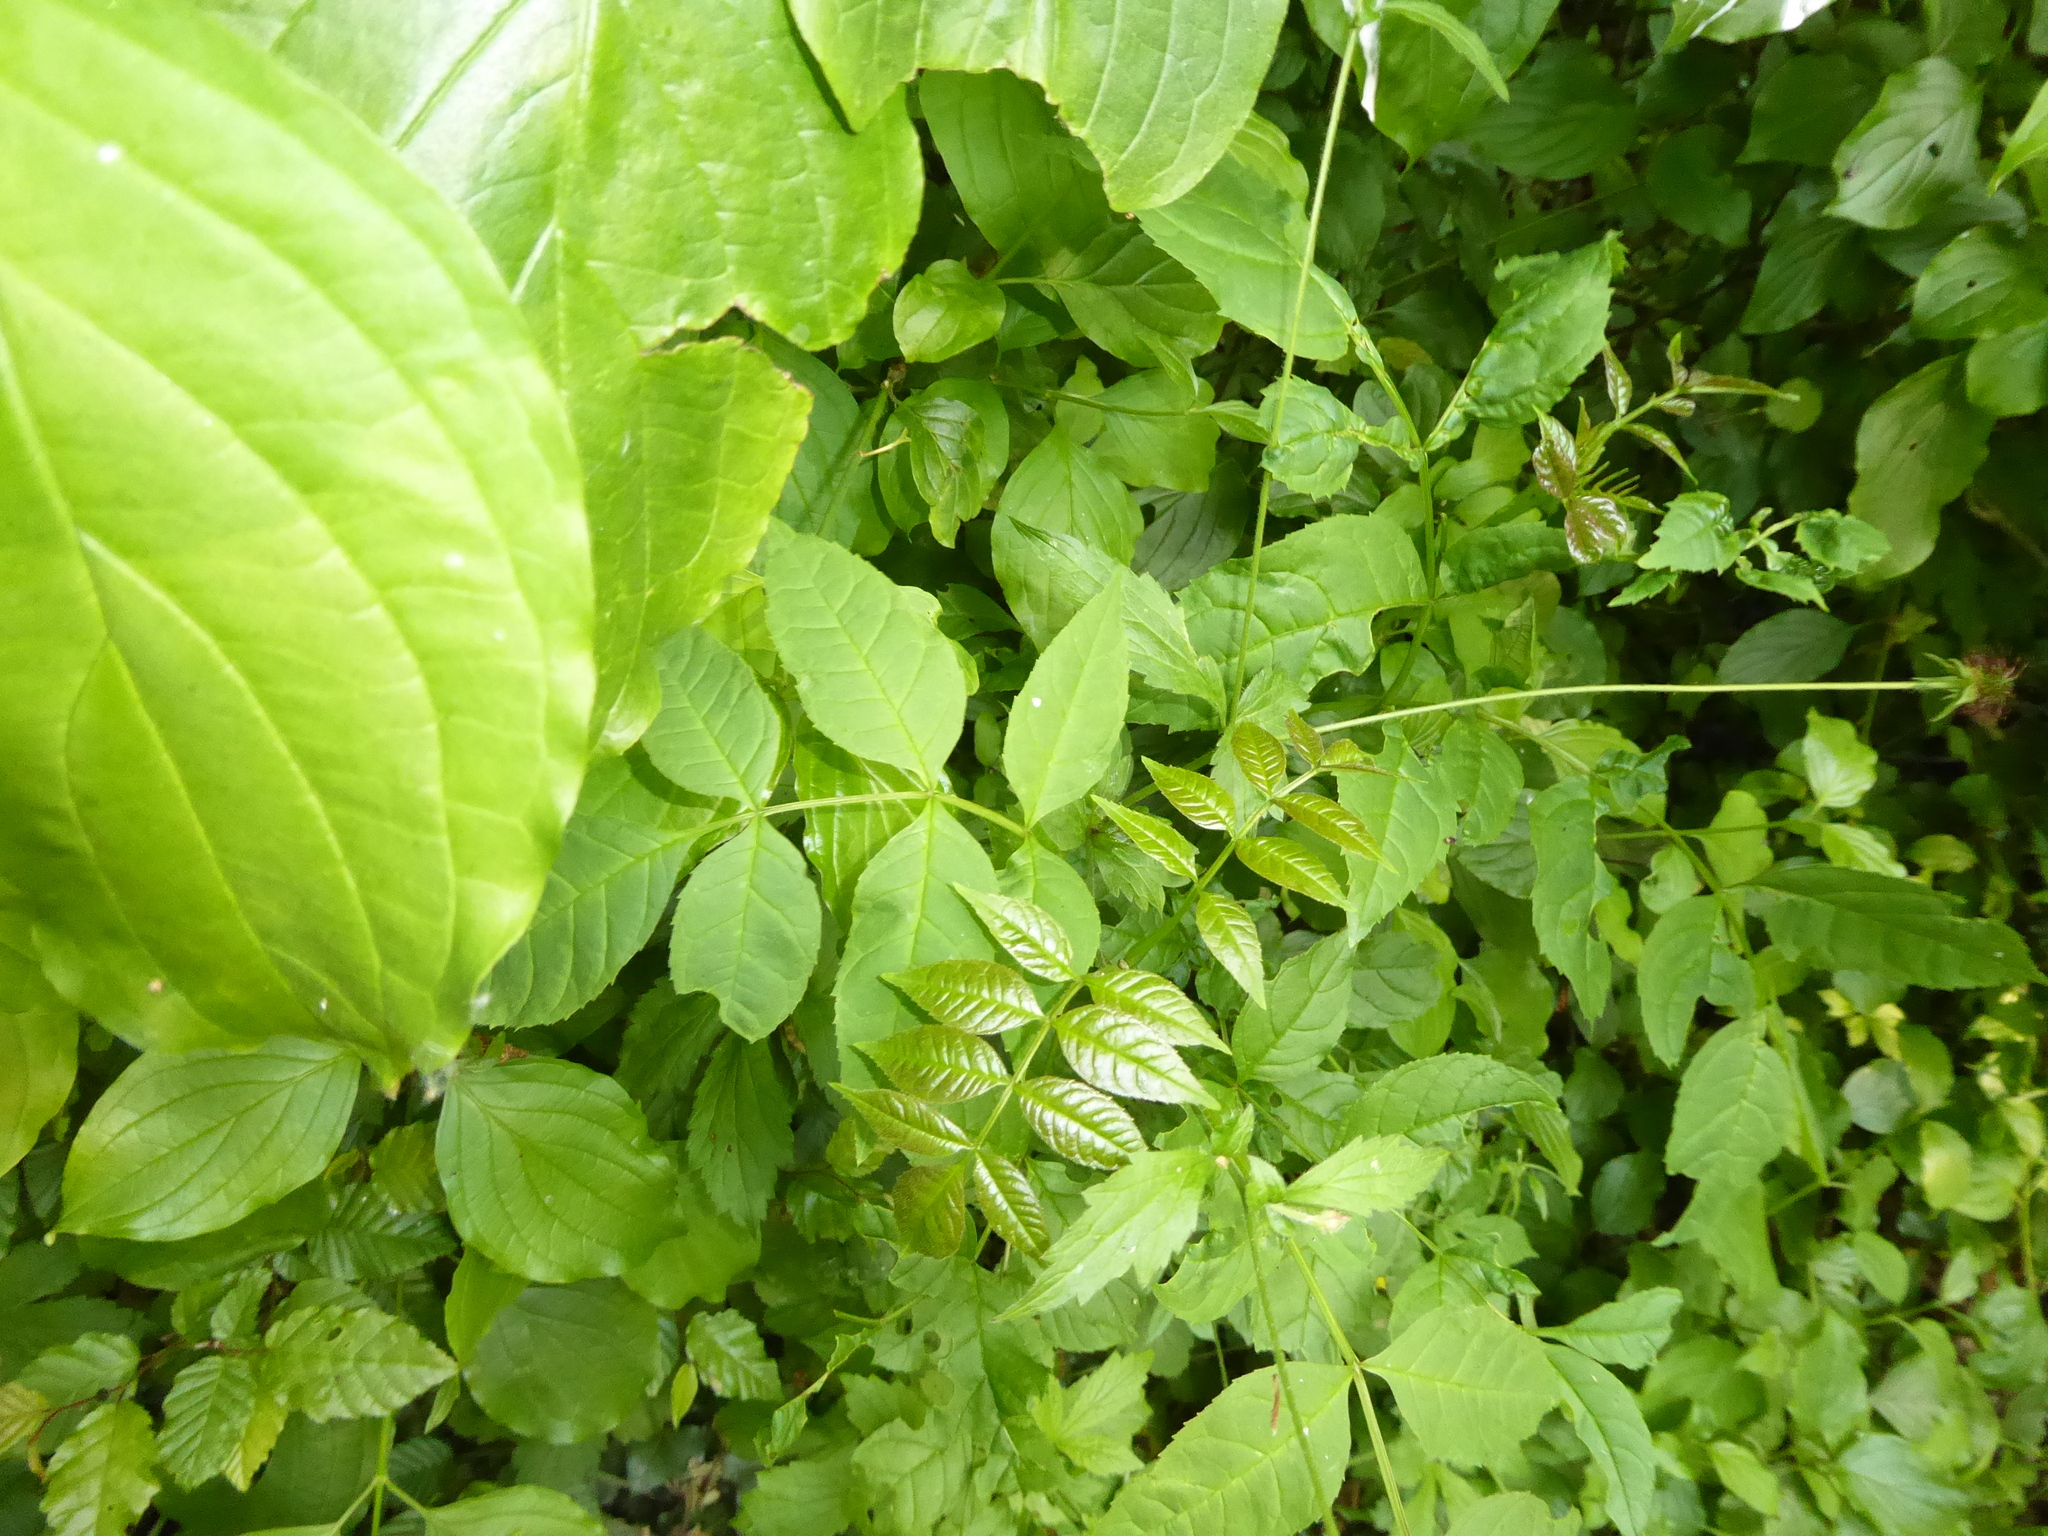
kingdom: Plantae
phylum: Tracheophyta
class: Magnoliopsida
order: Lamiales
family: Oleaceae
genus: Fraxinus
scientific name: Fraxinus excelsior
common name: European ash
